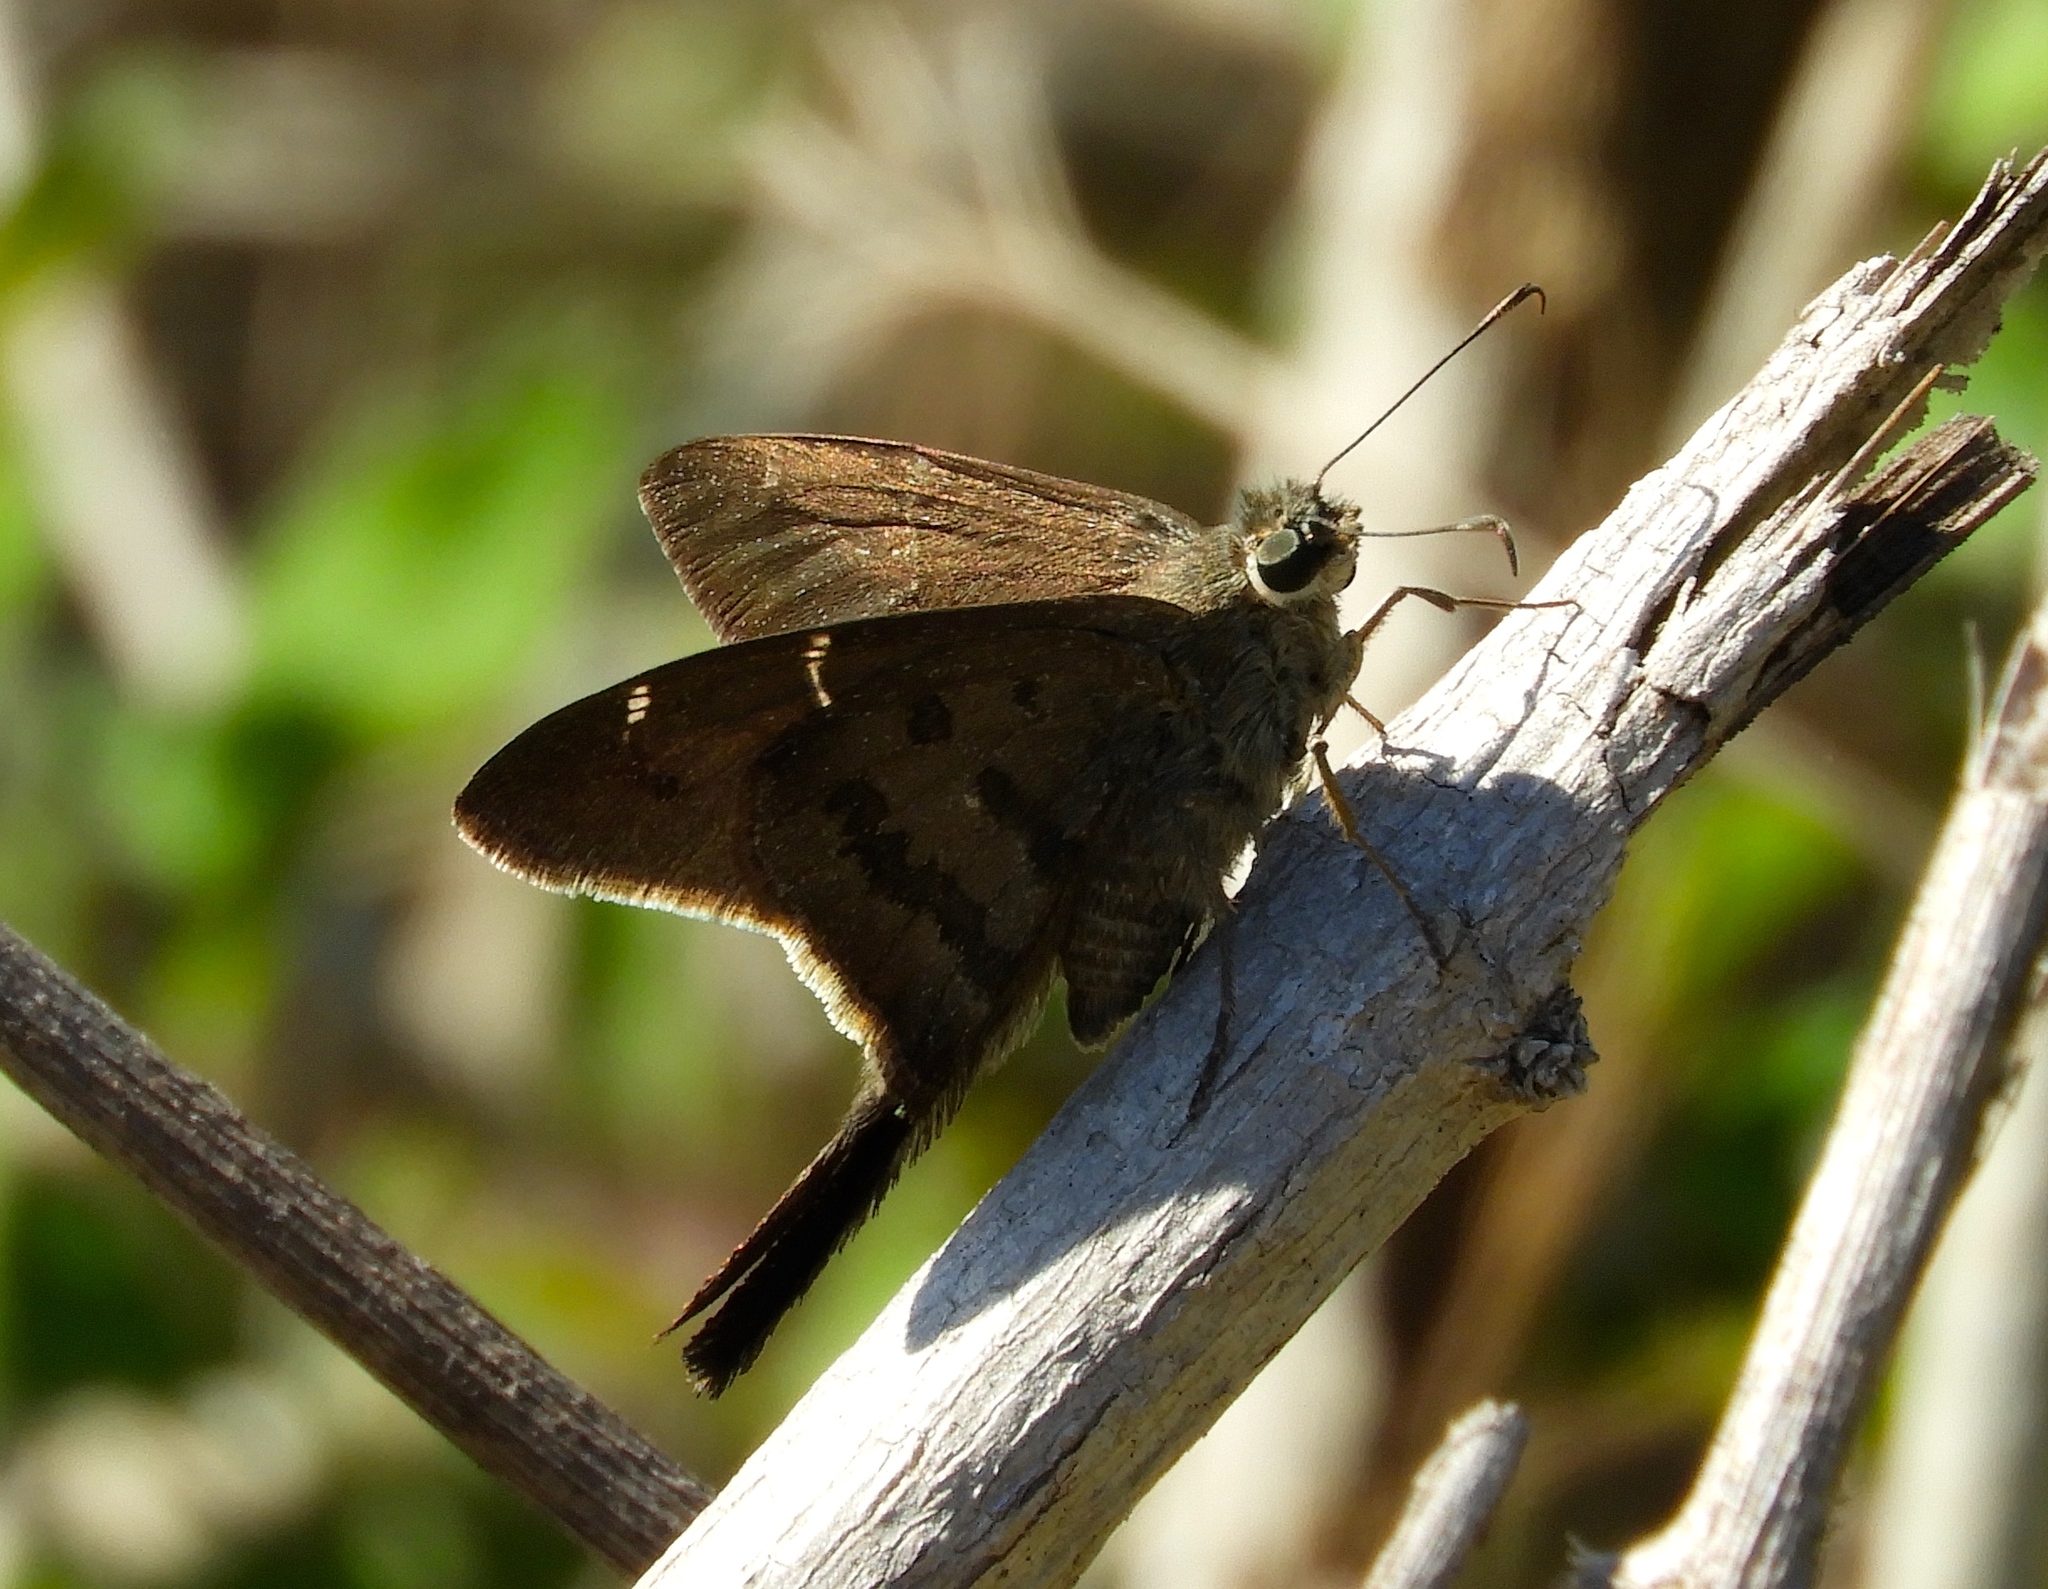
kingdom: Animalia
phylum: Arthropoda
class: Insecta
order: Lepidoptera
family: Hesperiidae
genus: Urbanus
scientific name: Urbanus procne
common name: Brown longtail
